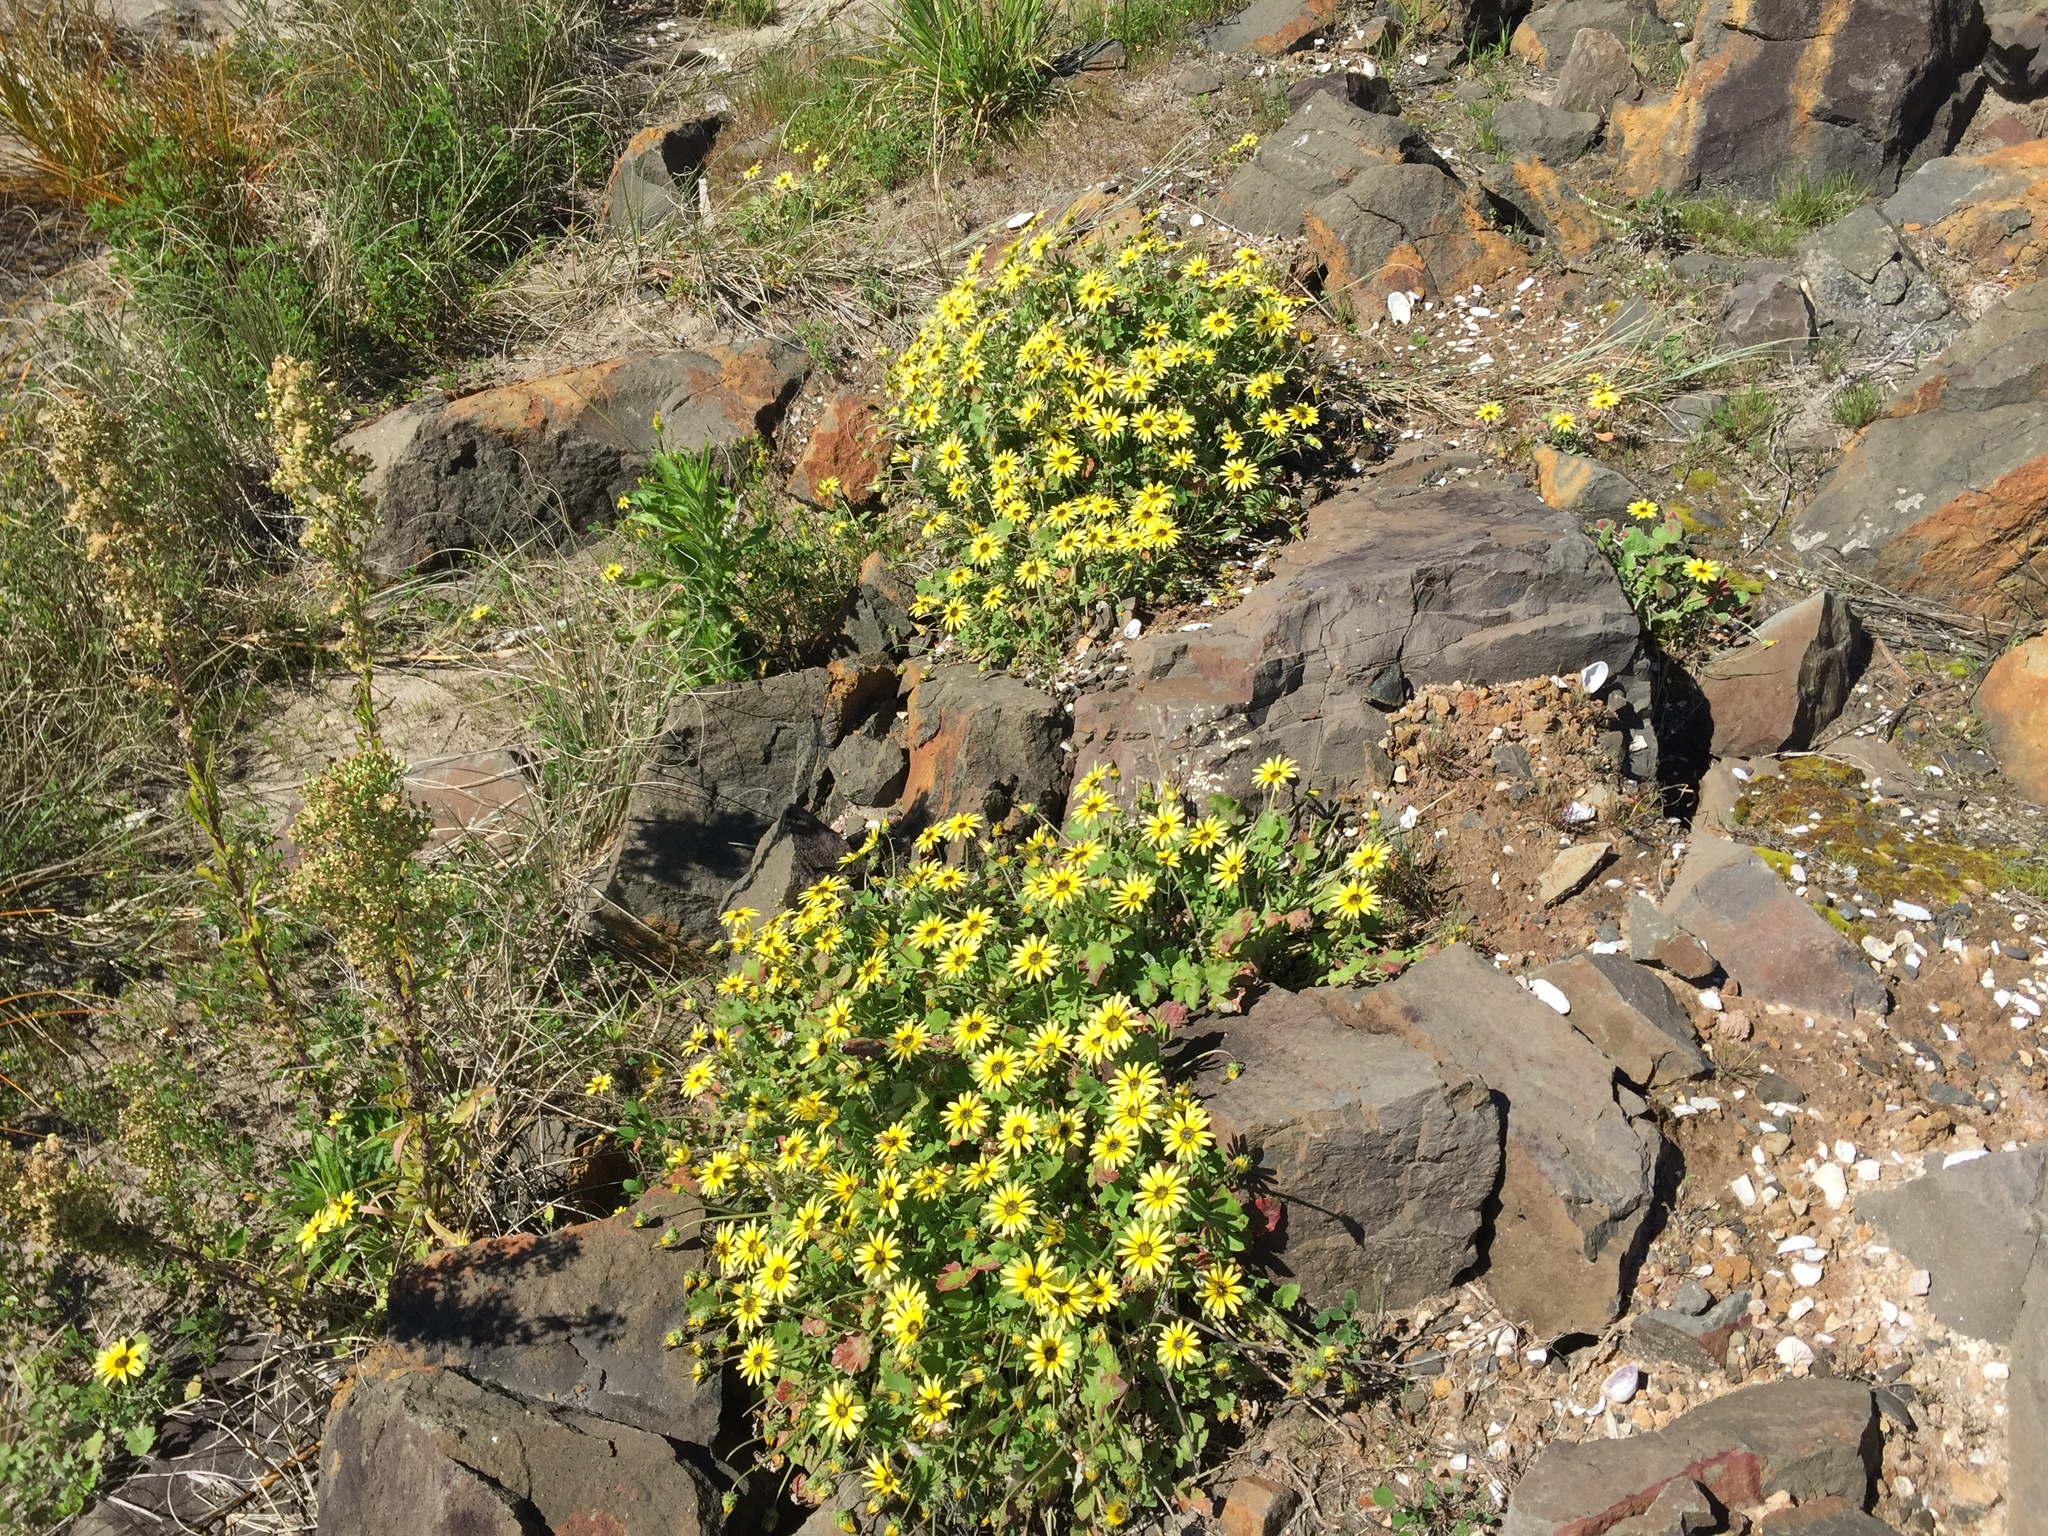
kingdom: Plantae
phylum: Tracheophyta
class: Magnoliopsida
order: Asterales
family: Asteraceae
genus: Arctotheca
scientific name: Arctotheca calendula
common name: Capeweed
